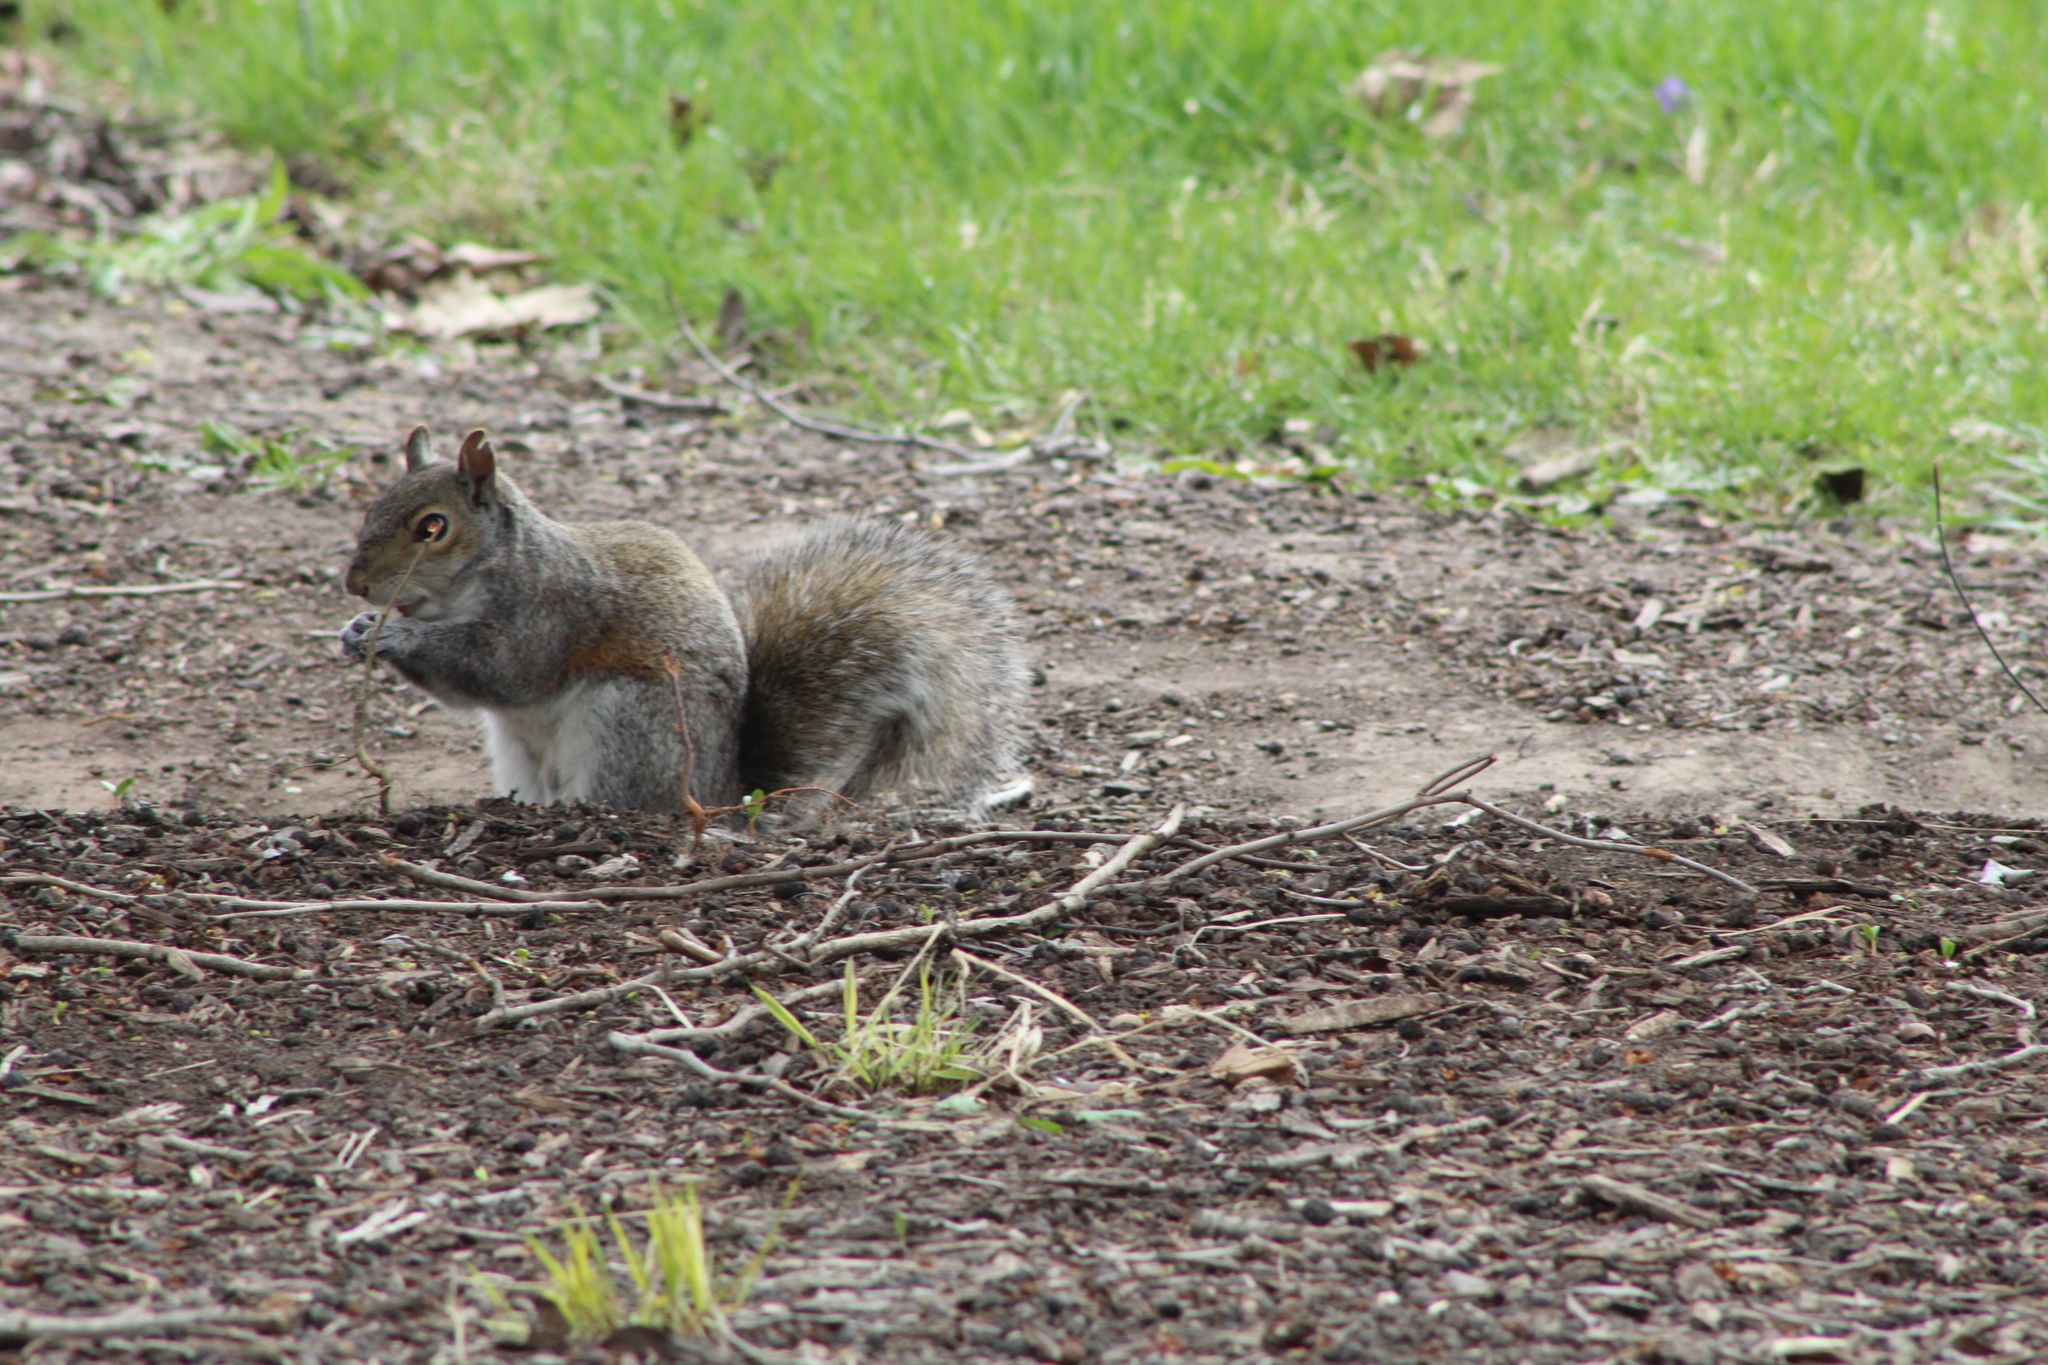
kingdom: Animalia
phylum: Chordata
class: Mammalia
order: Rodentia
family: Sciuridae
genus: Sciurus
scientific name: Sciurus carolinensis
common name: Eastern gray squirrel
